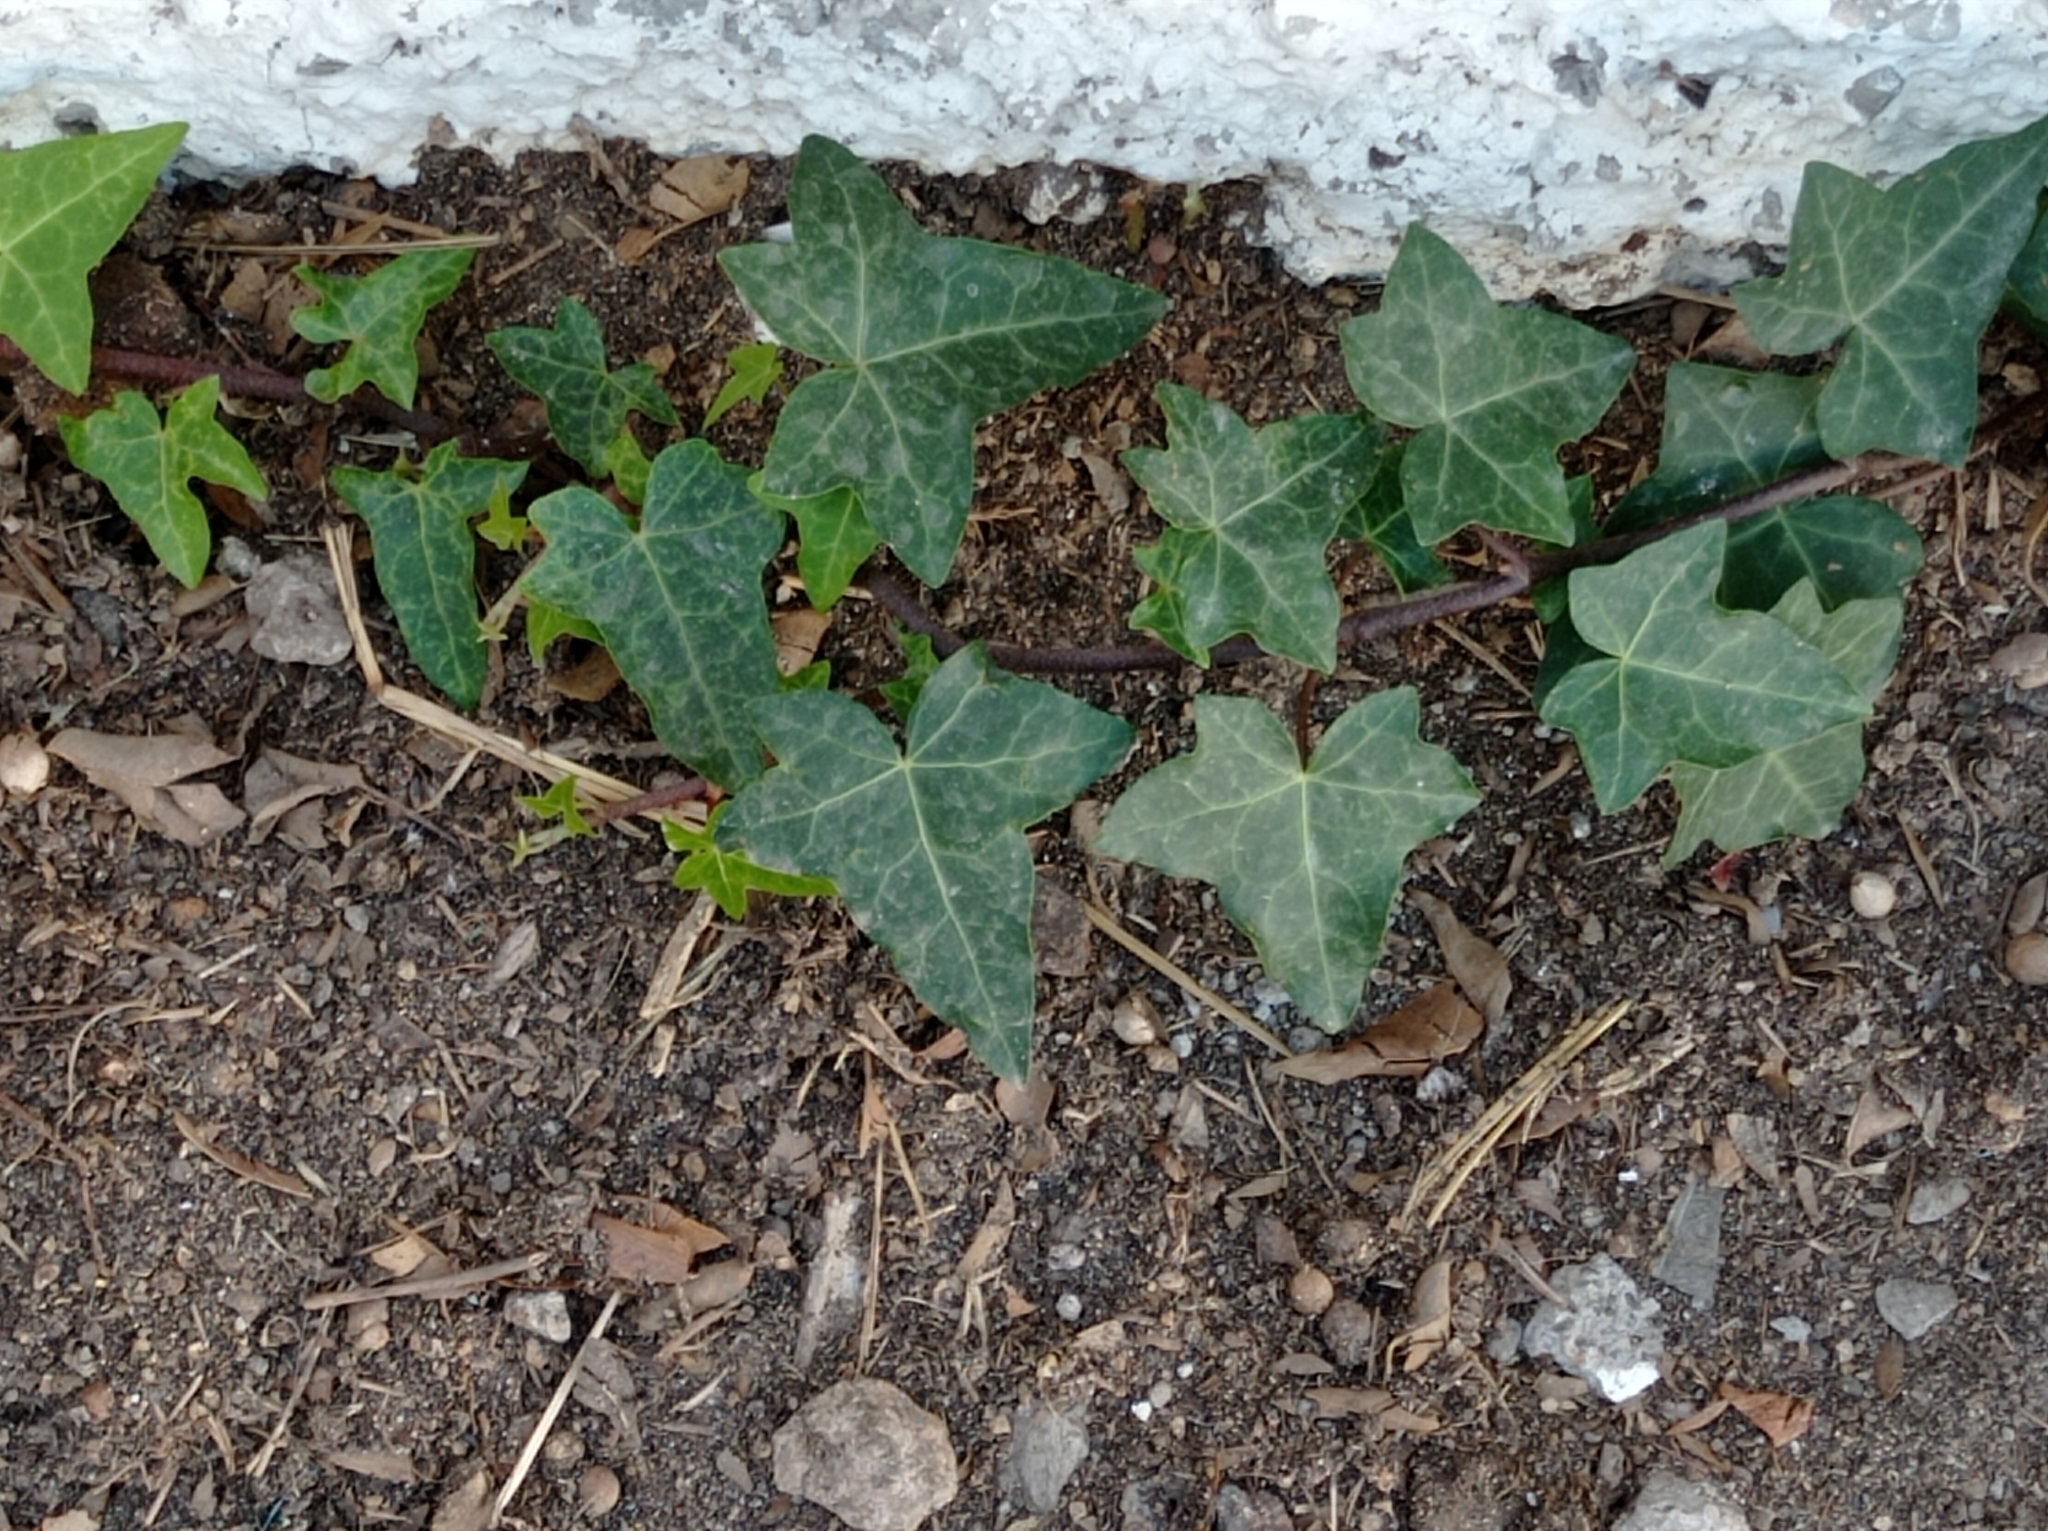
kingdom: Plantae
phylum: Tracheophyta
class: Magnoliopsida
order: Apiales
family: Araliaceae
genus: Hedera
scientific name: Hedera helix
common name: Ivy
